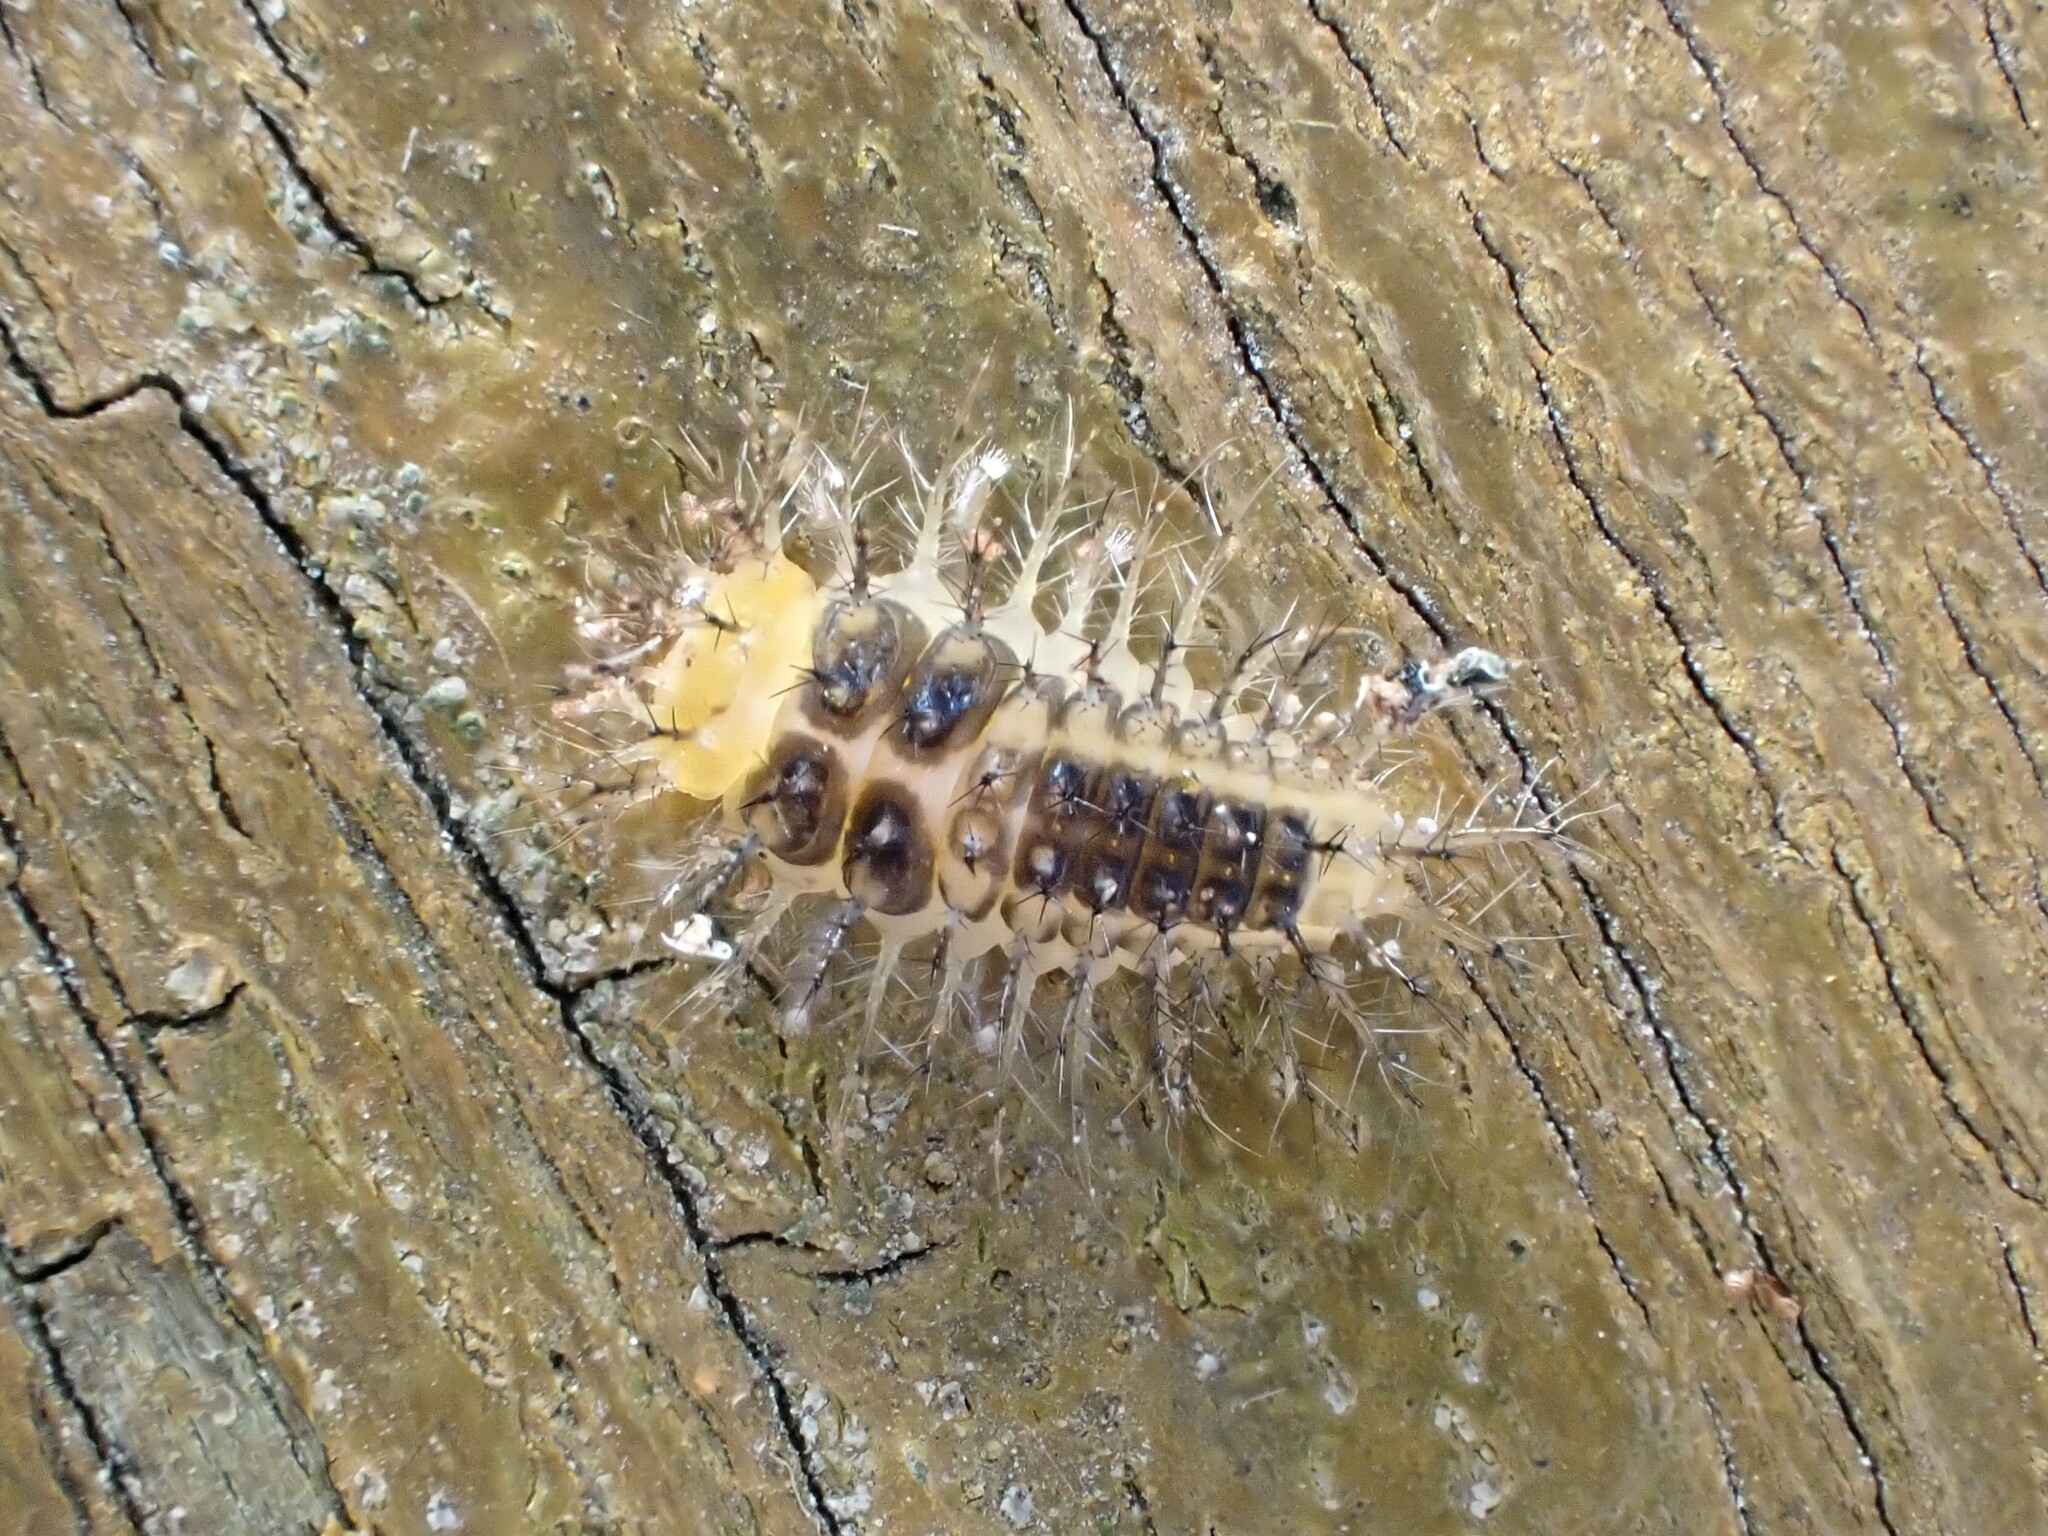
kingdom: Animalia
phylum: Arthropoda
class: Insecta
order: Coleoptera
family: Coccinellidae
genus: Halmus
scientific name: Halmus chalybeus
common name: Steel blue ladybird beetle
